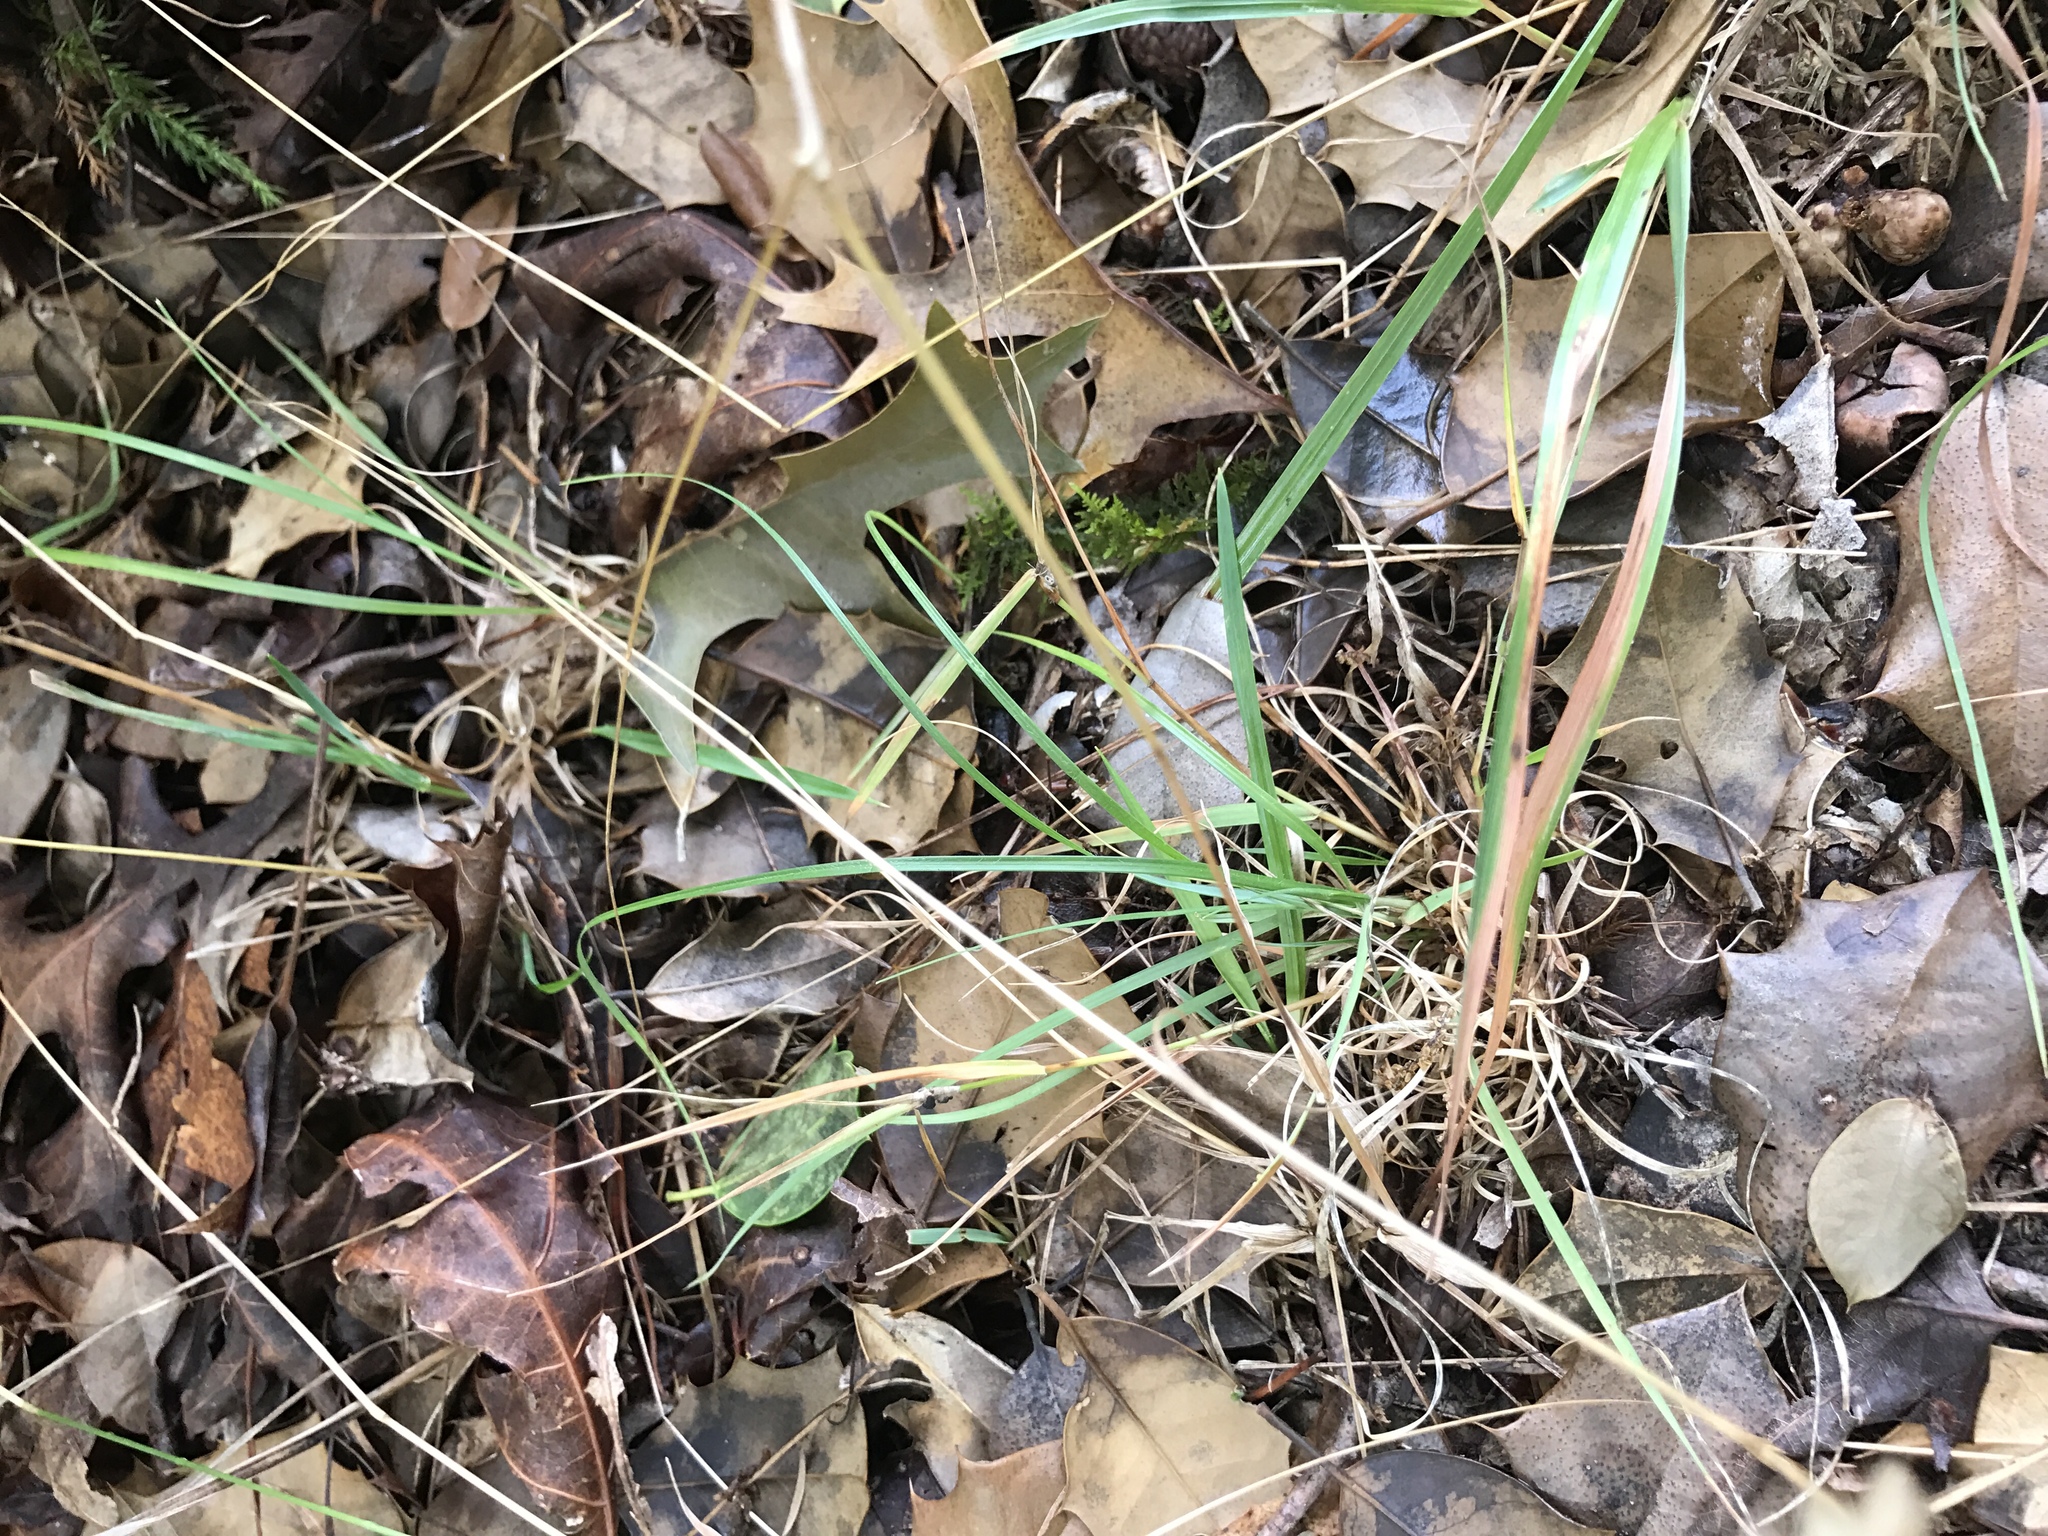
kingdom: Plantae
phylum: Tracheophyta
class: Liliopsida
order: Poales
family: Poaceae
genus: Danthonia
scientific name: Danthonia spicata
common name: Common wild oatgrass
